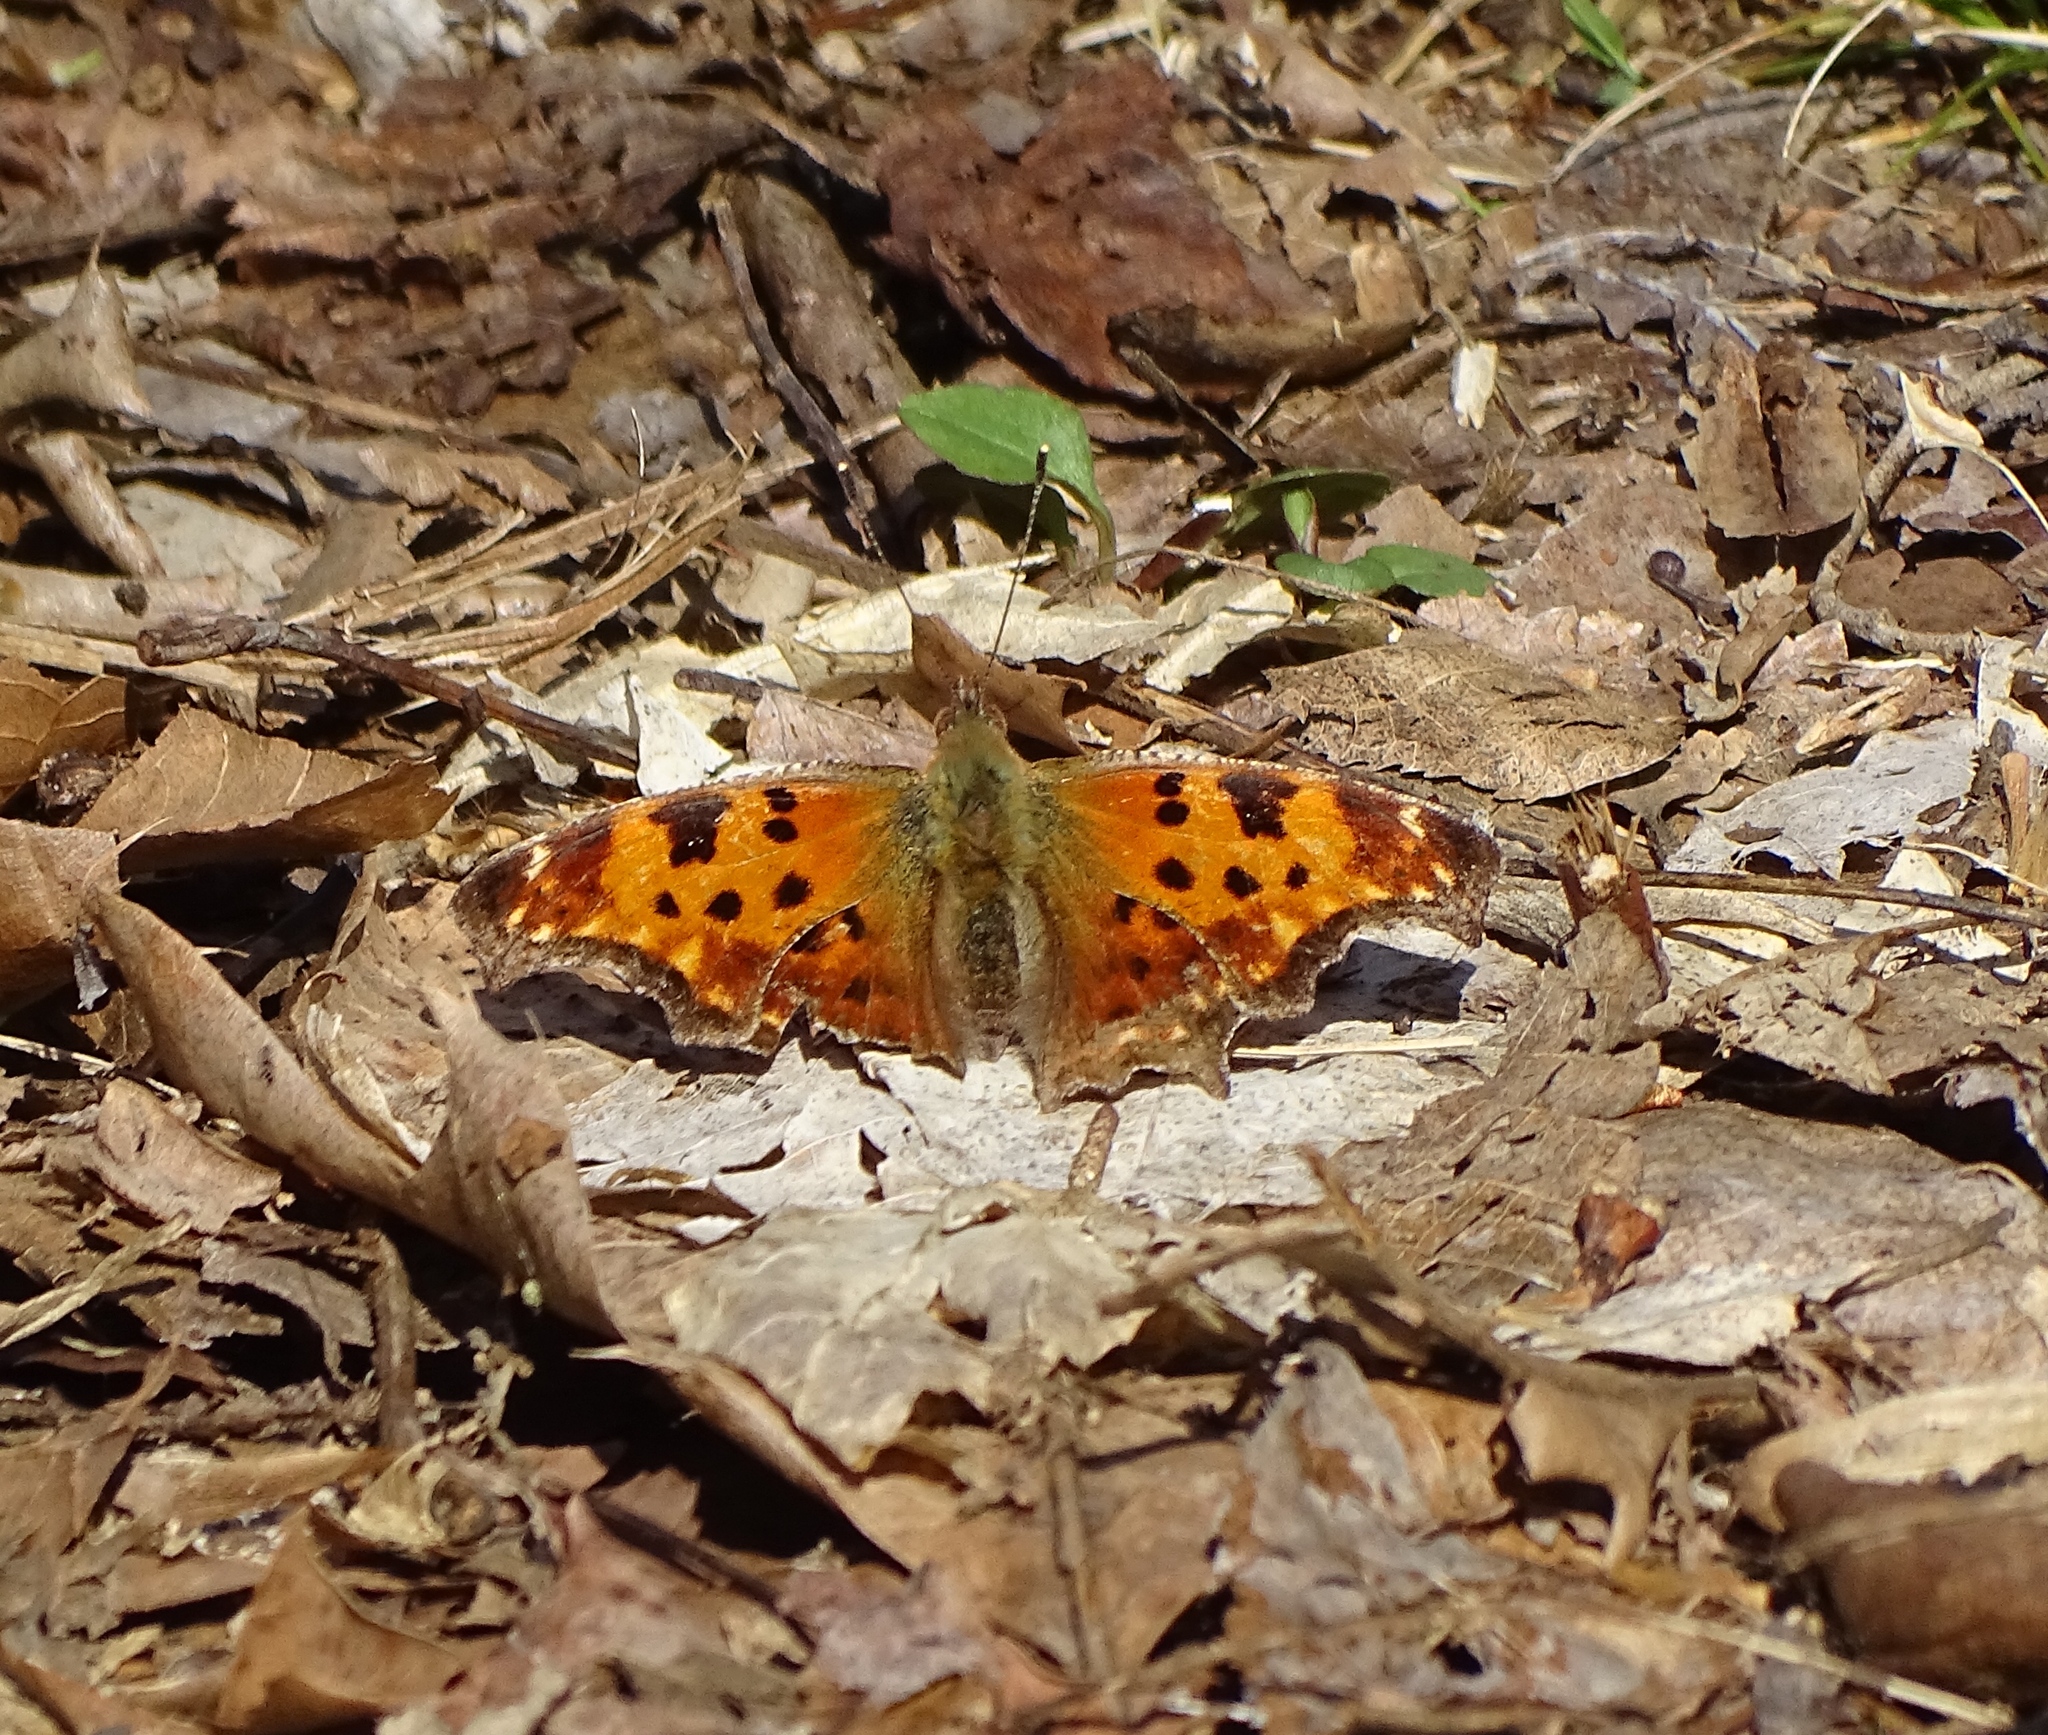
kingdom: Animalia
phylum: Arthropoda
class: Insecta
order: Lepidoptera
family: Nymphalidae
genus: Polygonia
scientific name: Polygonia comma
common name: Eastern comma
